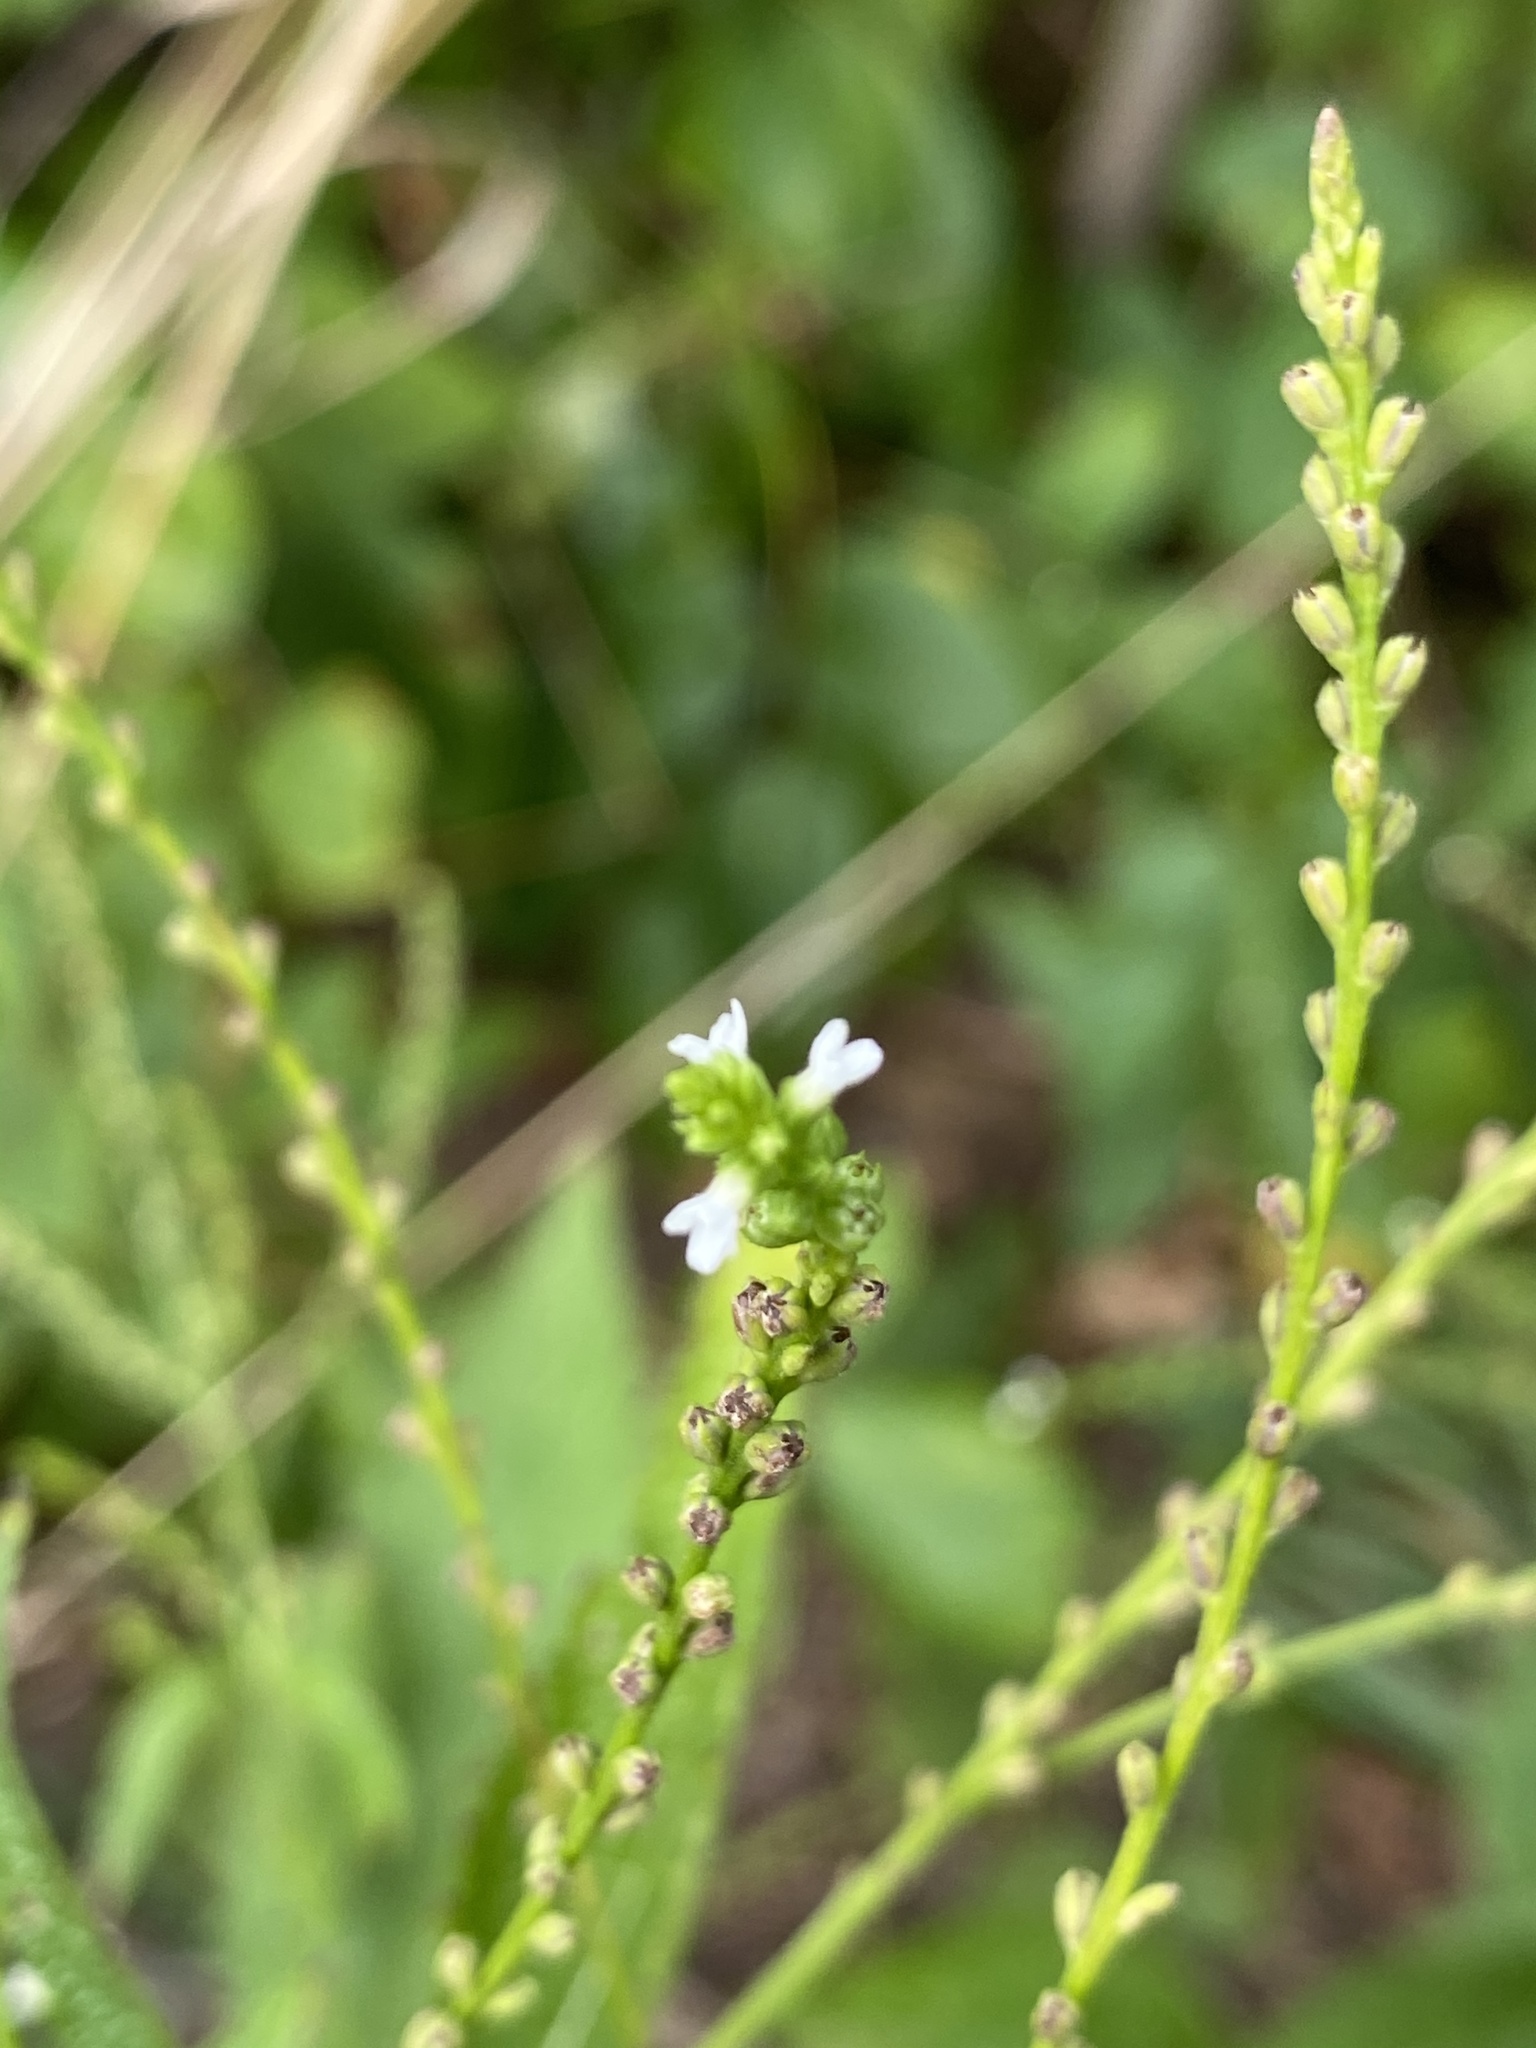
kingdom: Plantae
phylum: Tracheophyta
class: Magnoliopsida
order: Lamiales
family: Verbenaceae
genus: Verbena
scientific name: Verbena urticifolia
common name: Nettle-leaved vervain
